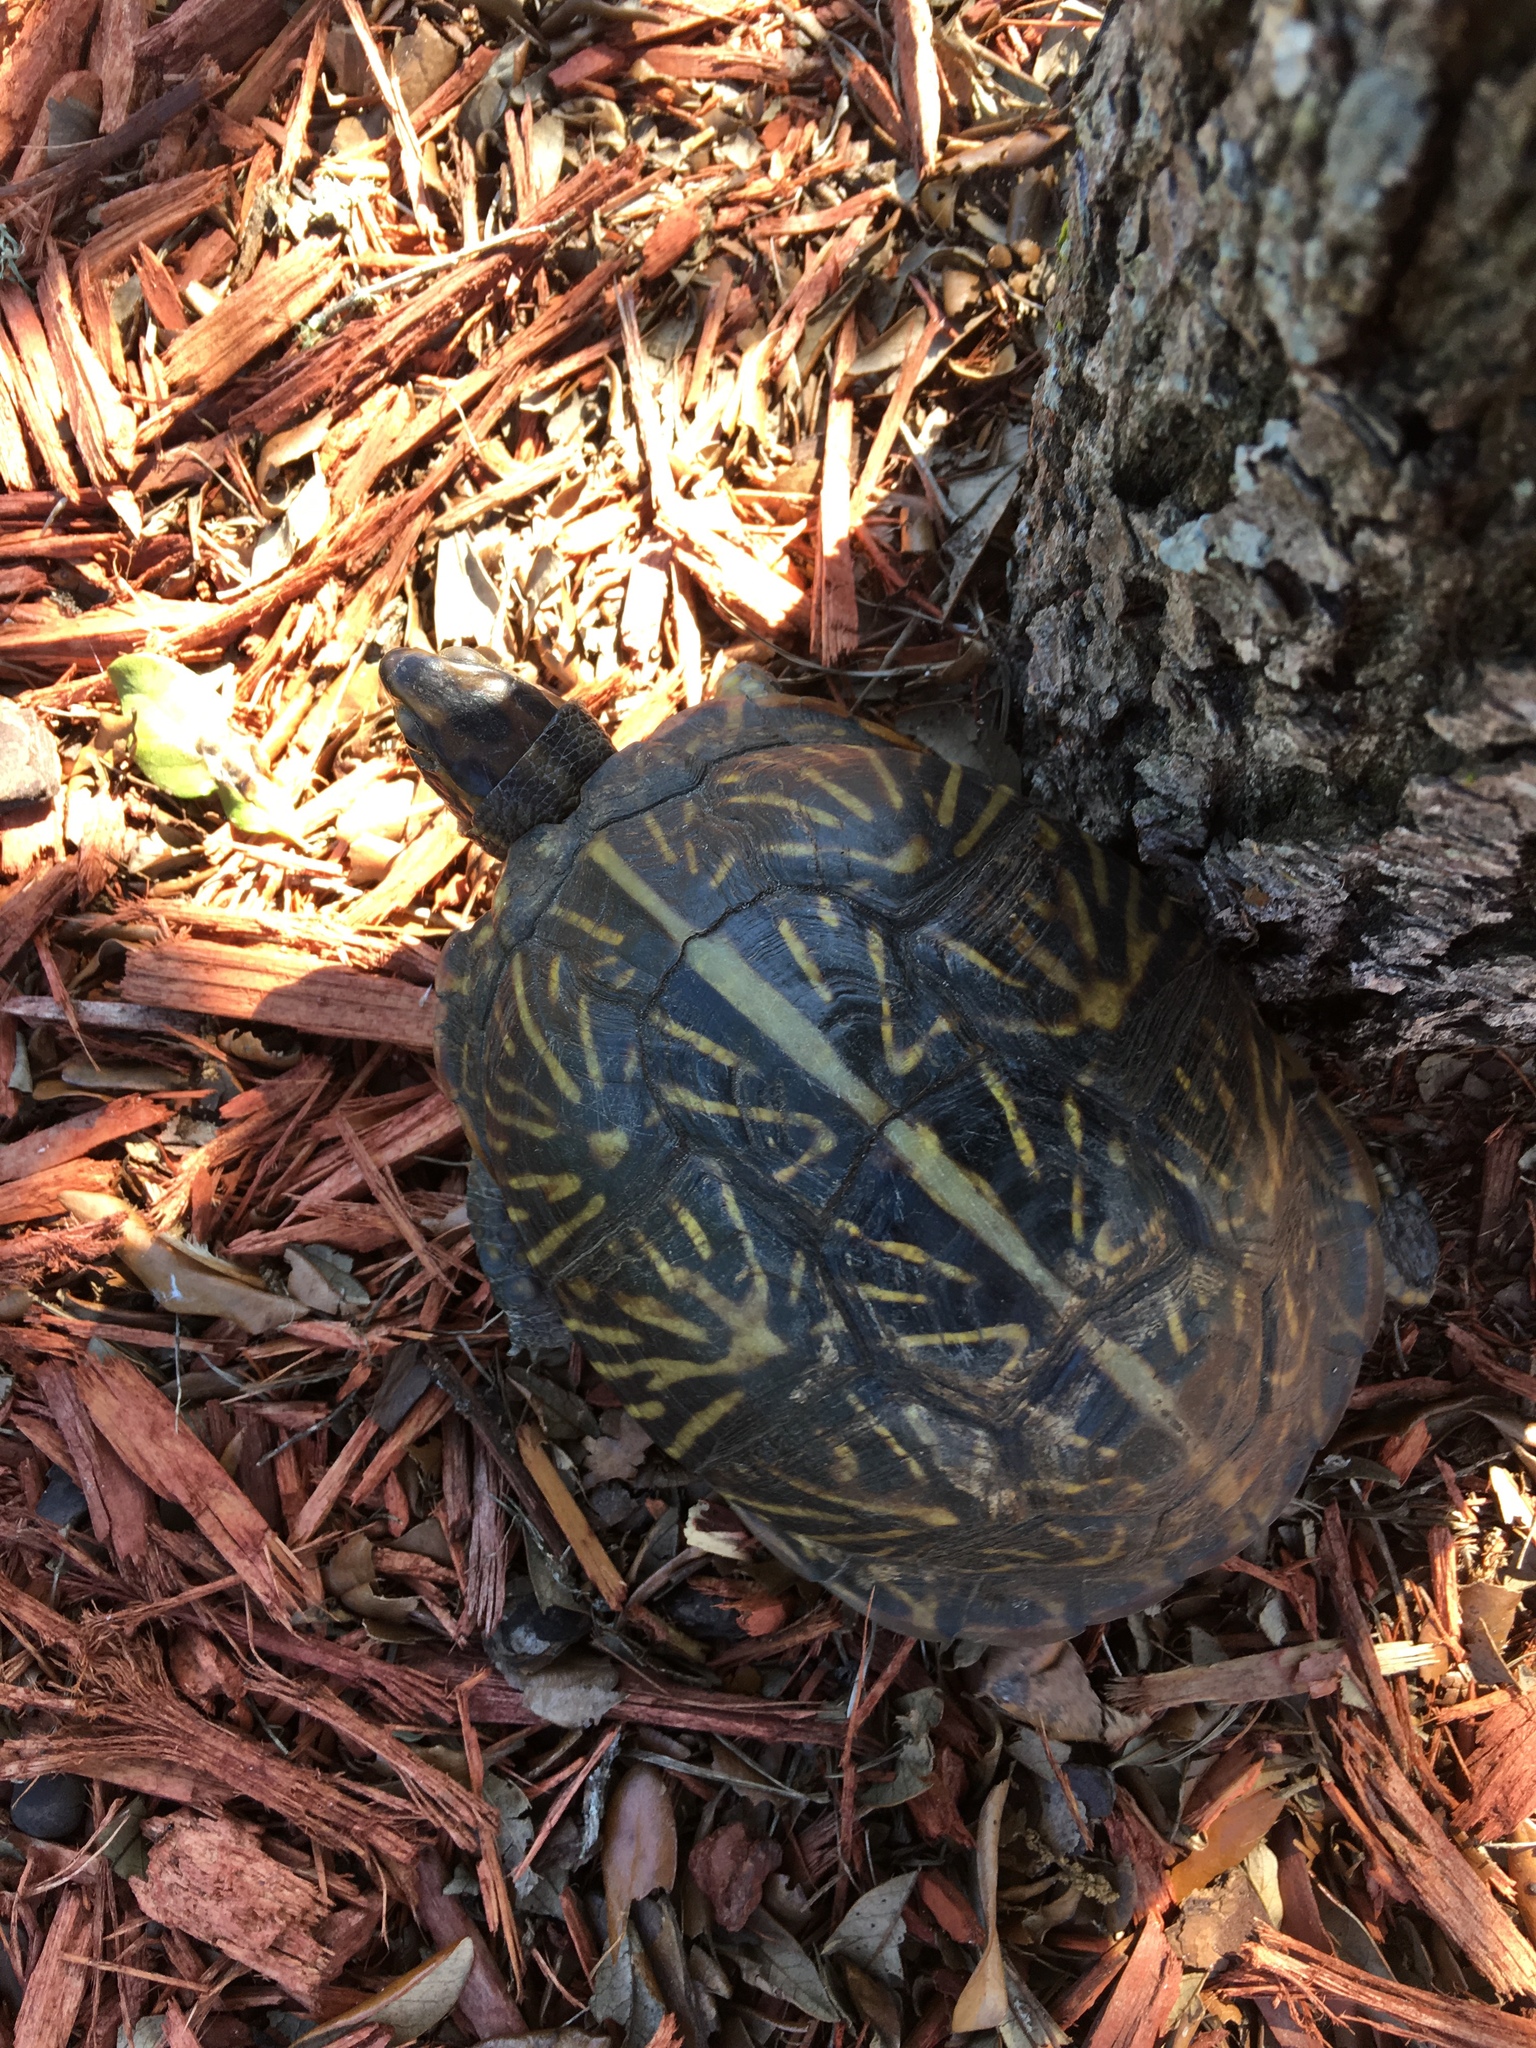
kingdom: Animalia
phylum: Chordata
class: Testudines
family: Emydidae
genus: Terrapene
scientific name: Terrapene carolina
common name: Common box turtle
